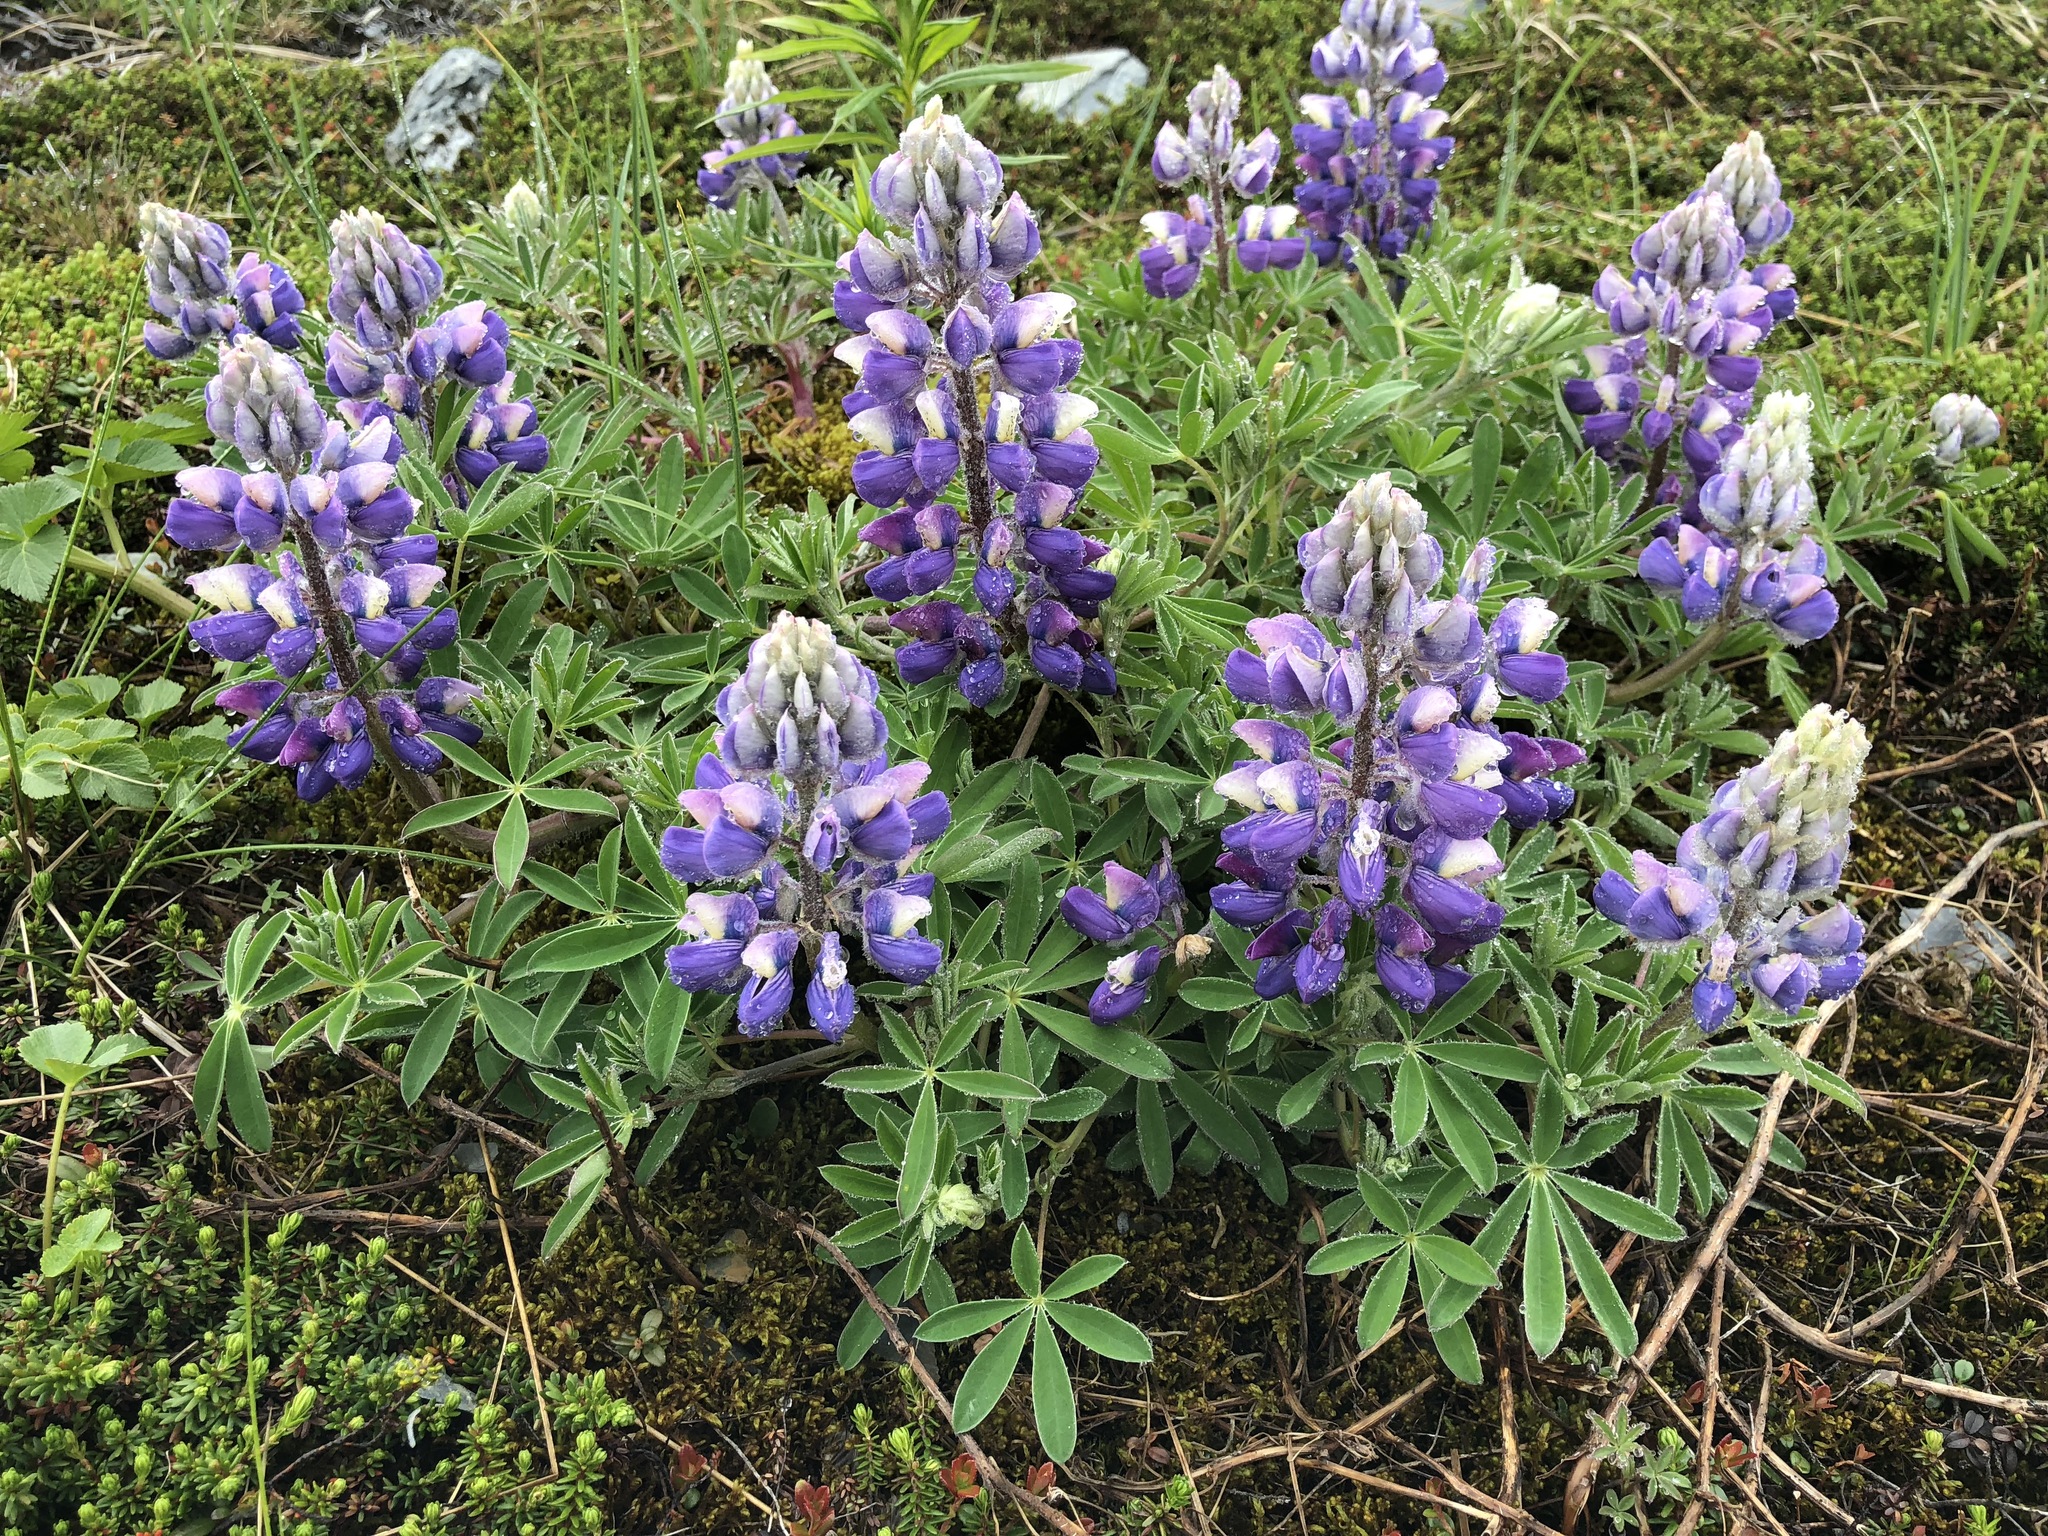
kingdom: Plantae
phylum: Tracheophyta
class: Magnoliopsida
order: Fabales
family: Fabaceae
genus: Lupinus
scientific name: Lupinus nootkatensis
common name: Nootka lupine
